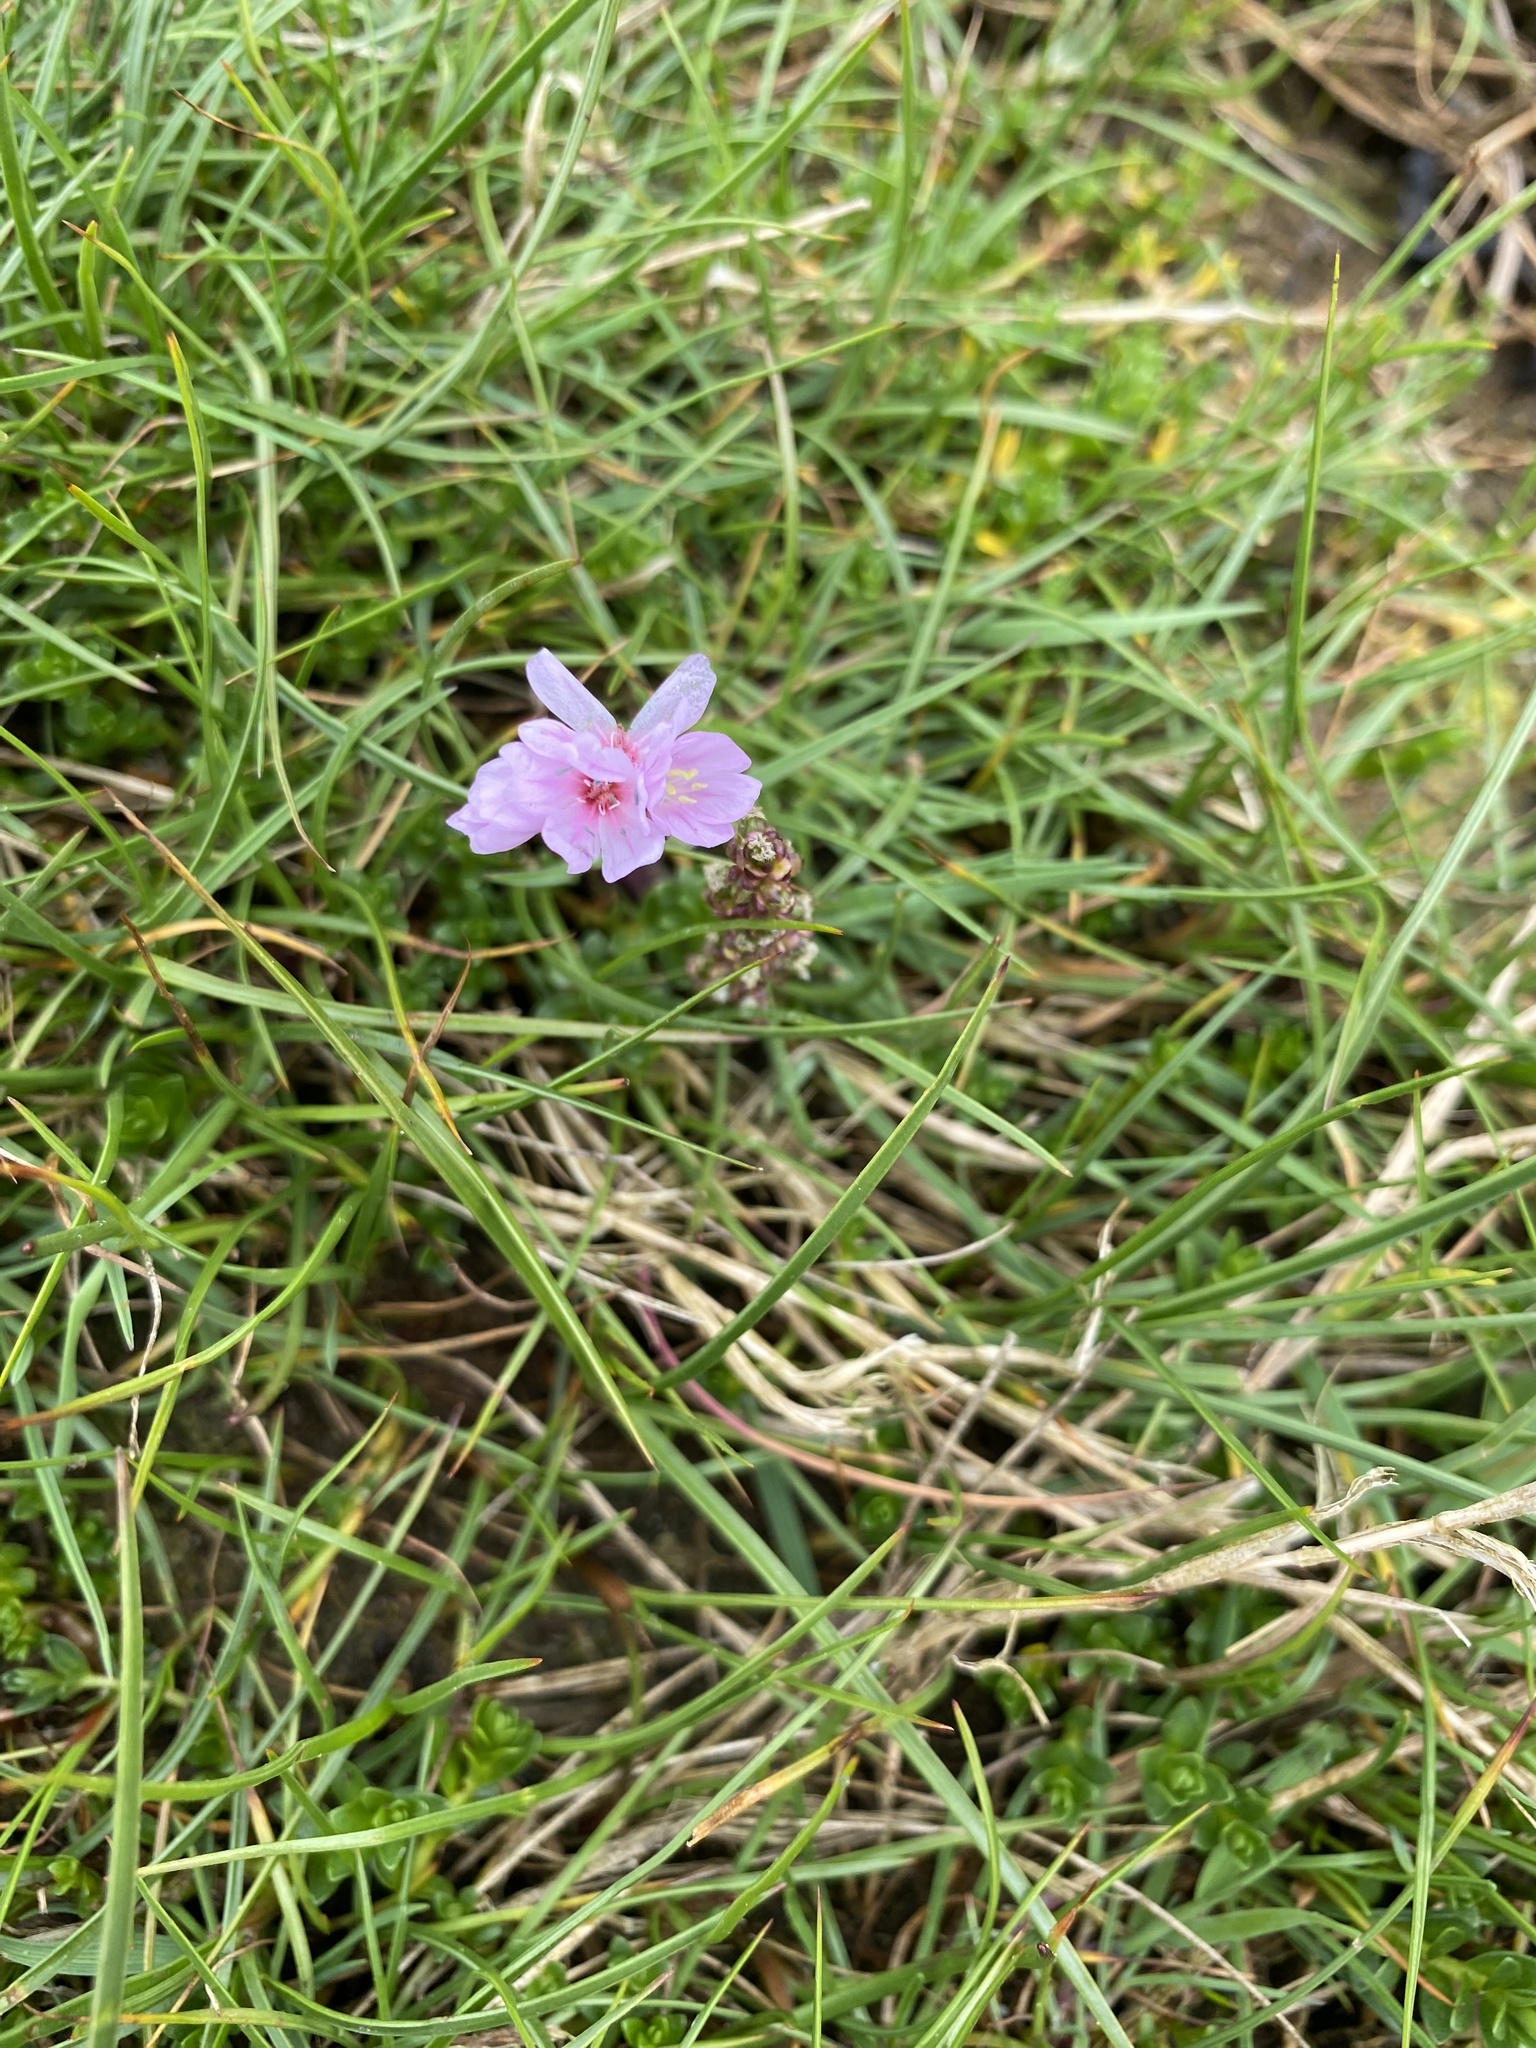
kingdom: Plantae
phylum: Tracheophyta
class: Magnoliopsida
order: Caryophyllales
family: Plumbaginaceae
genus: Armeria
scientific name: Armeria maritima
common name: Thrift
